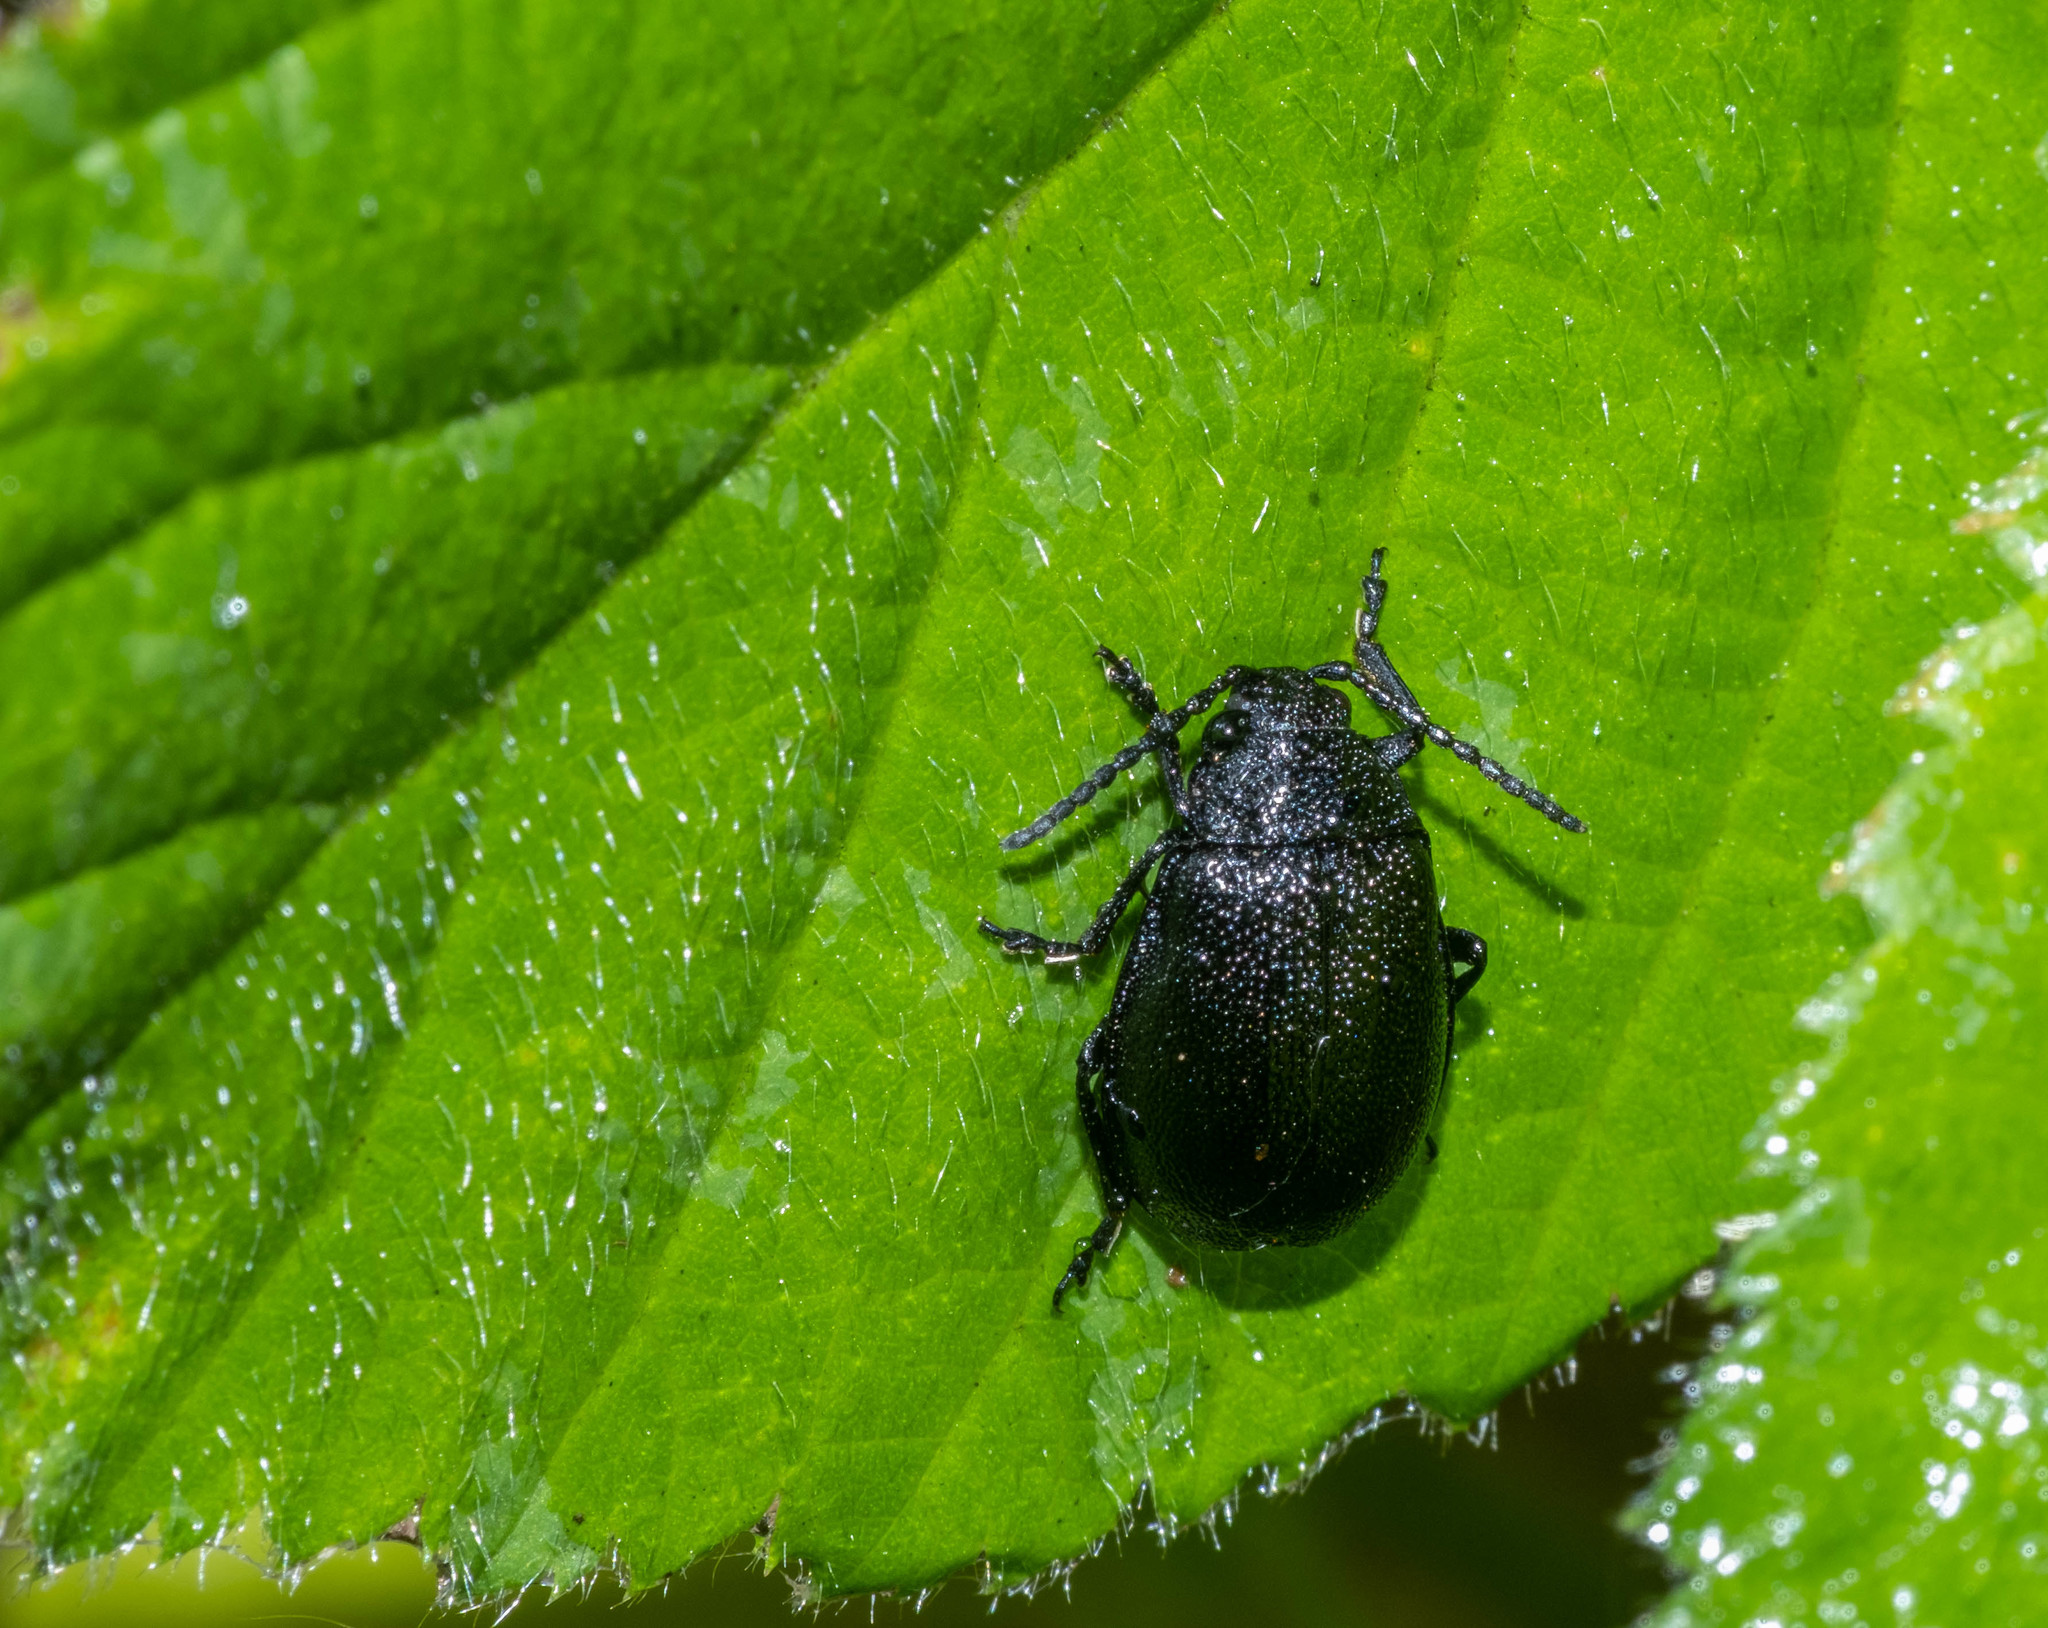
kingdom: Animalia
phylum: Arthropoda
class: Insecta
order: Coleoptera
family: Chrysomelidae
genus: Galeruca
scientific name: Galeruca tanaceti
